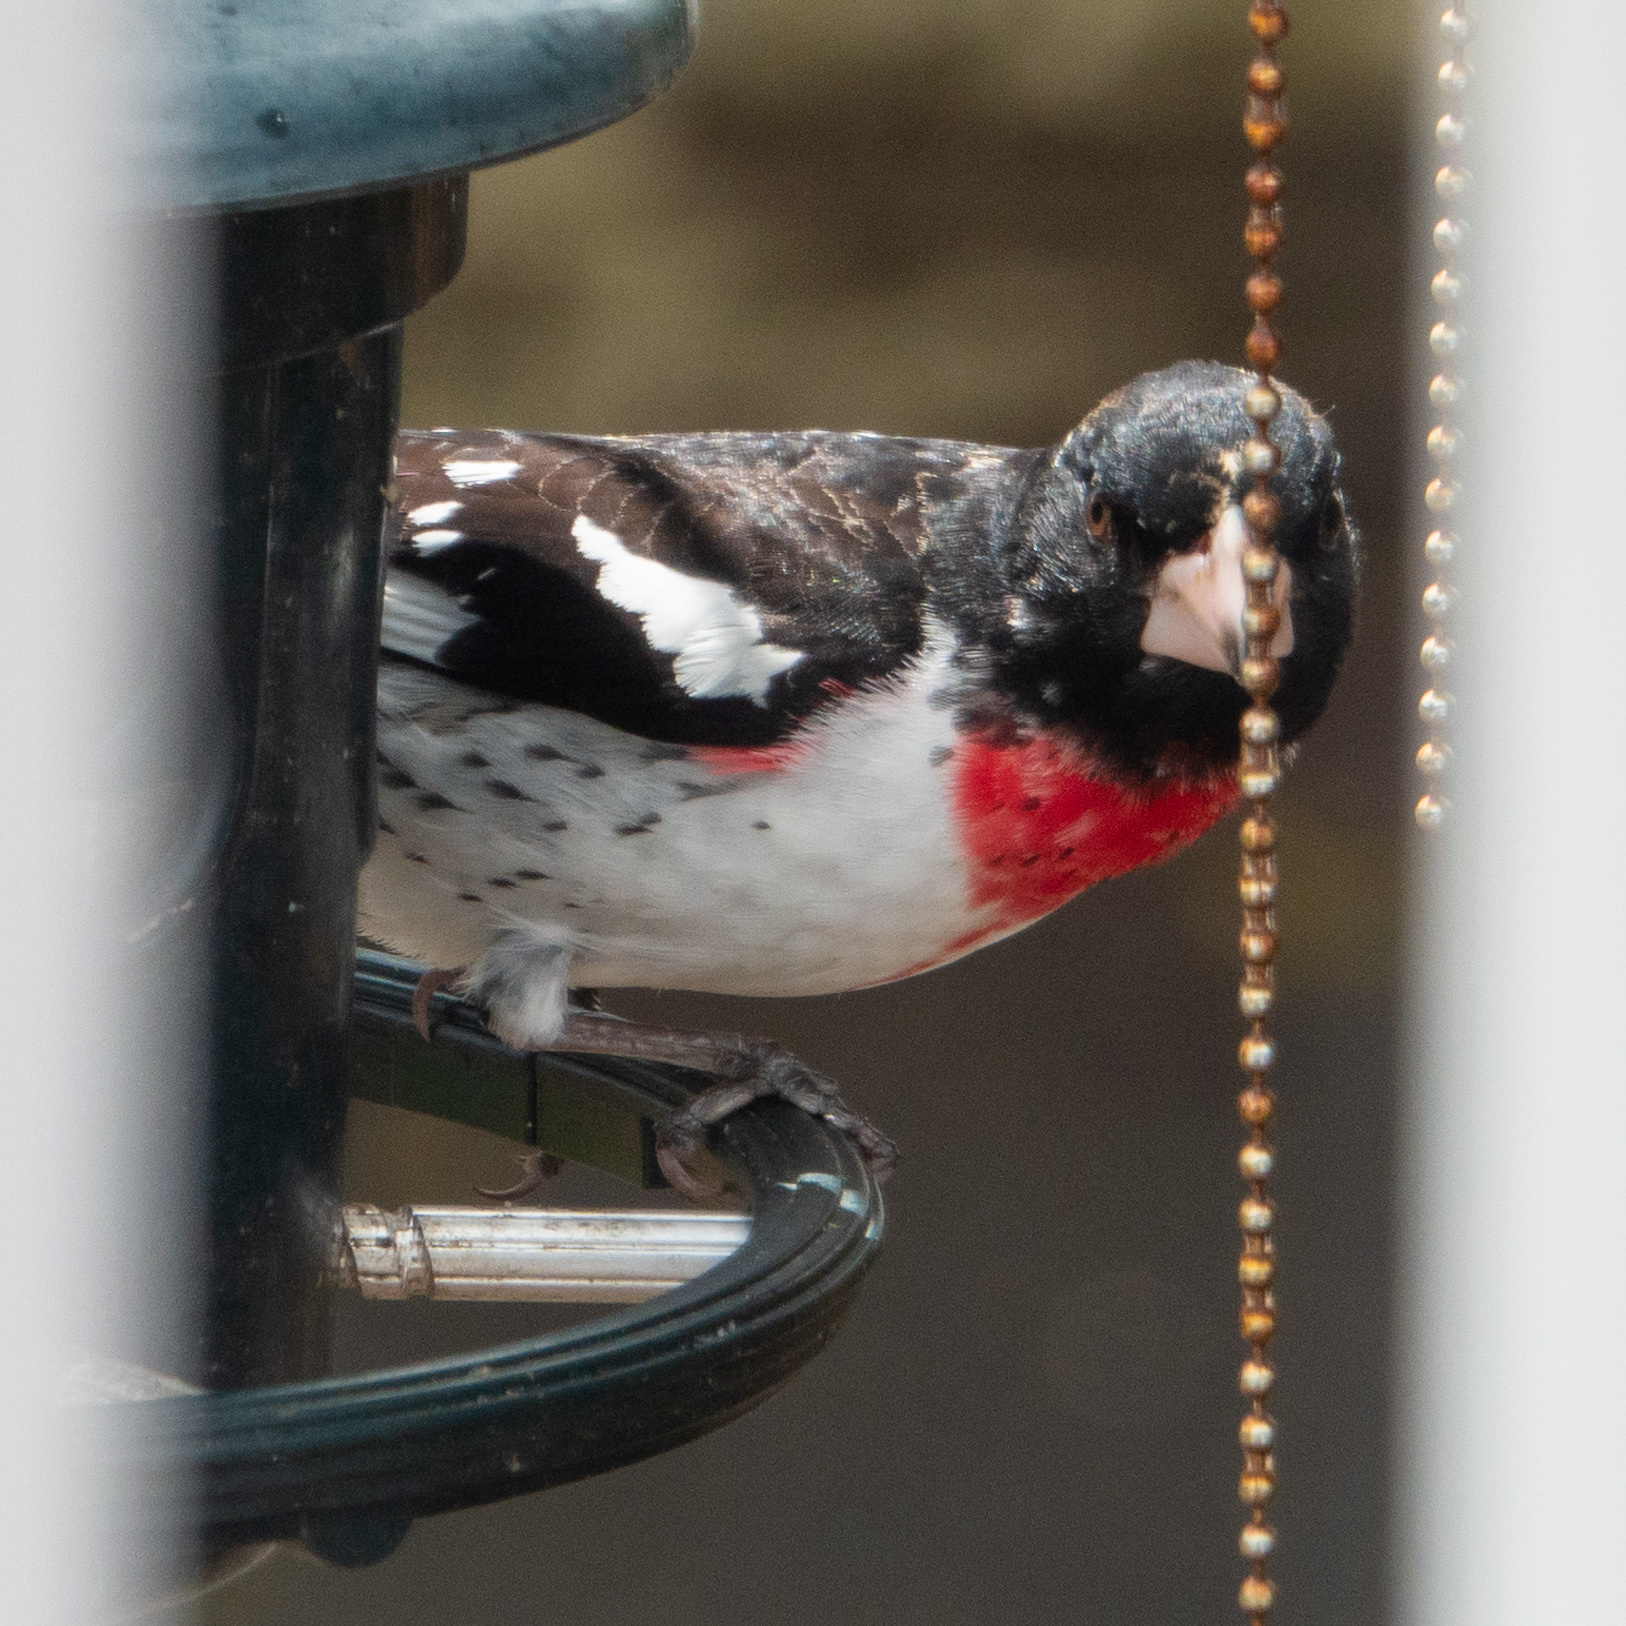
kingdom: Animalia
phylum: Chordata
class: Aves
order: Passeriformes
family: Cardinalidae
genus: Pheucticus
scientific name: Pheucticus ludovicianus
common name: Rose-breasted grosbeak
